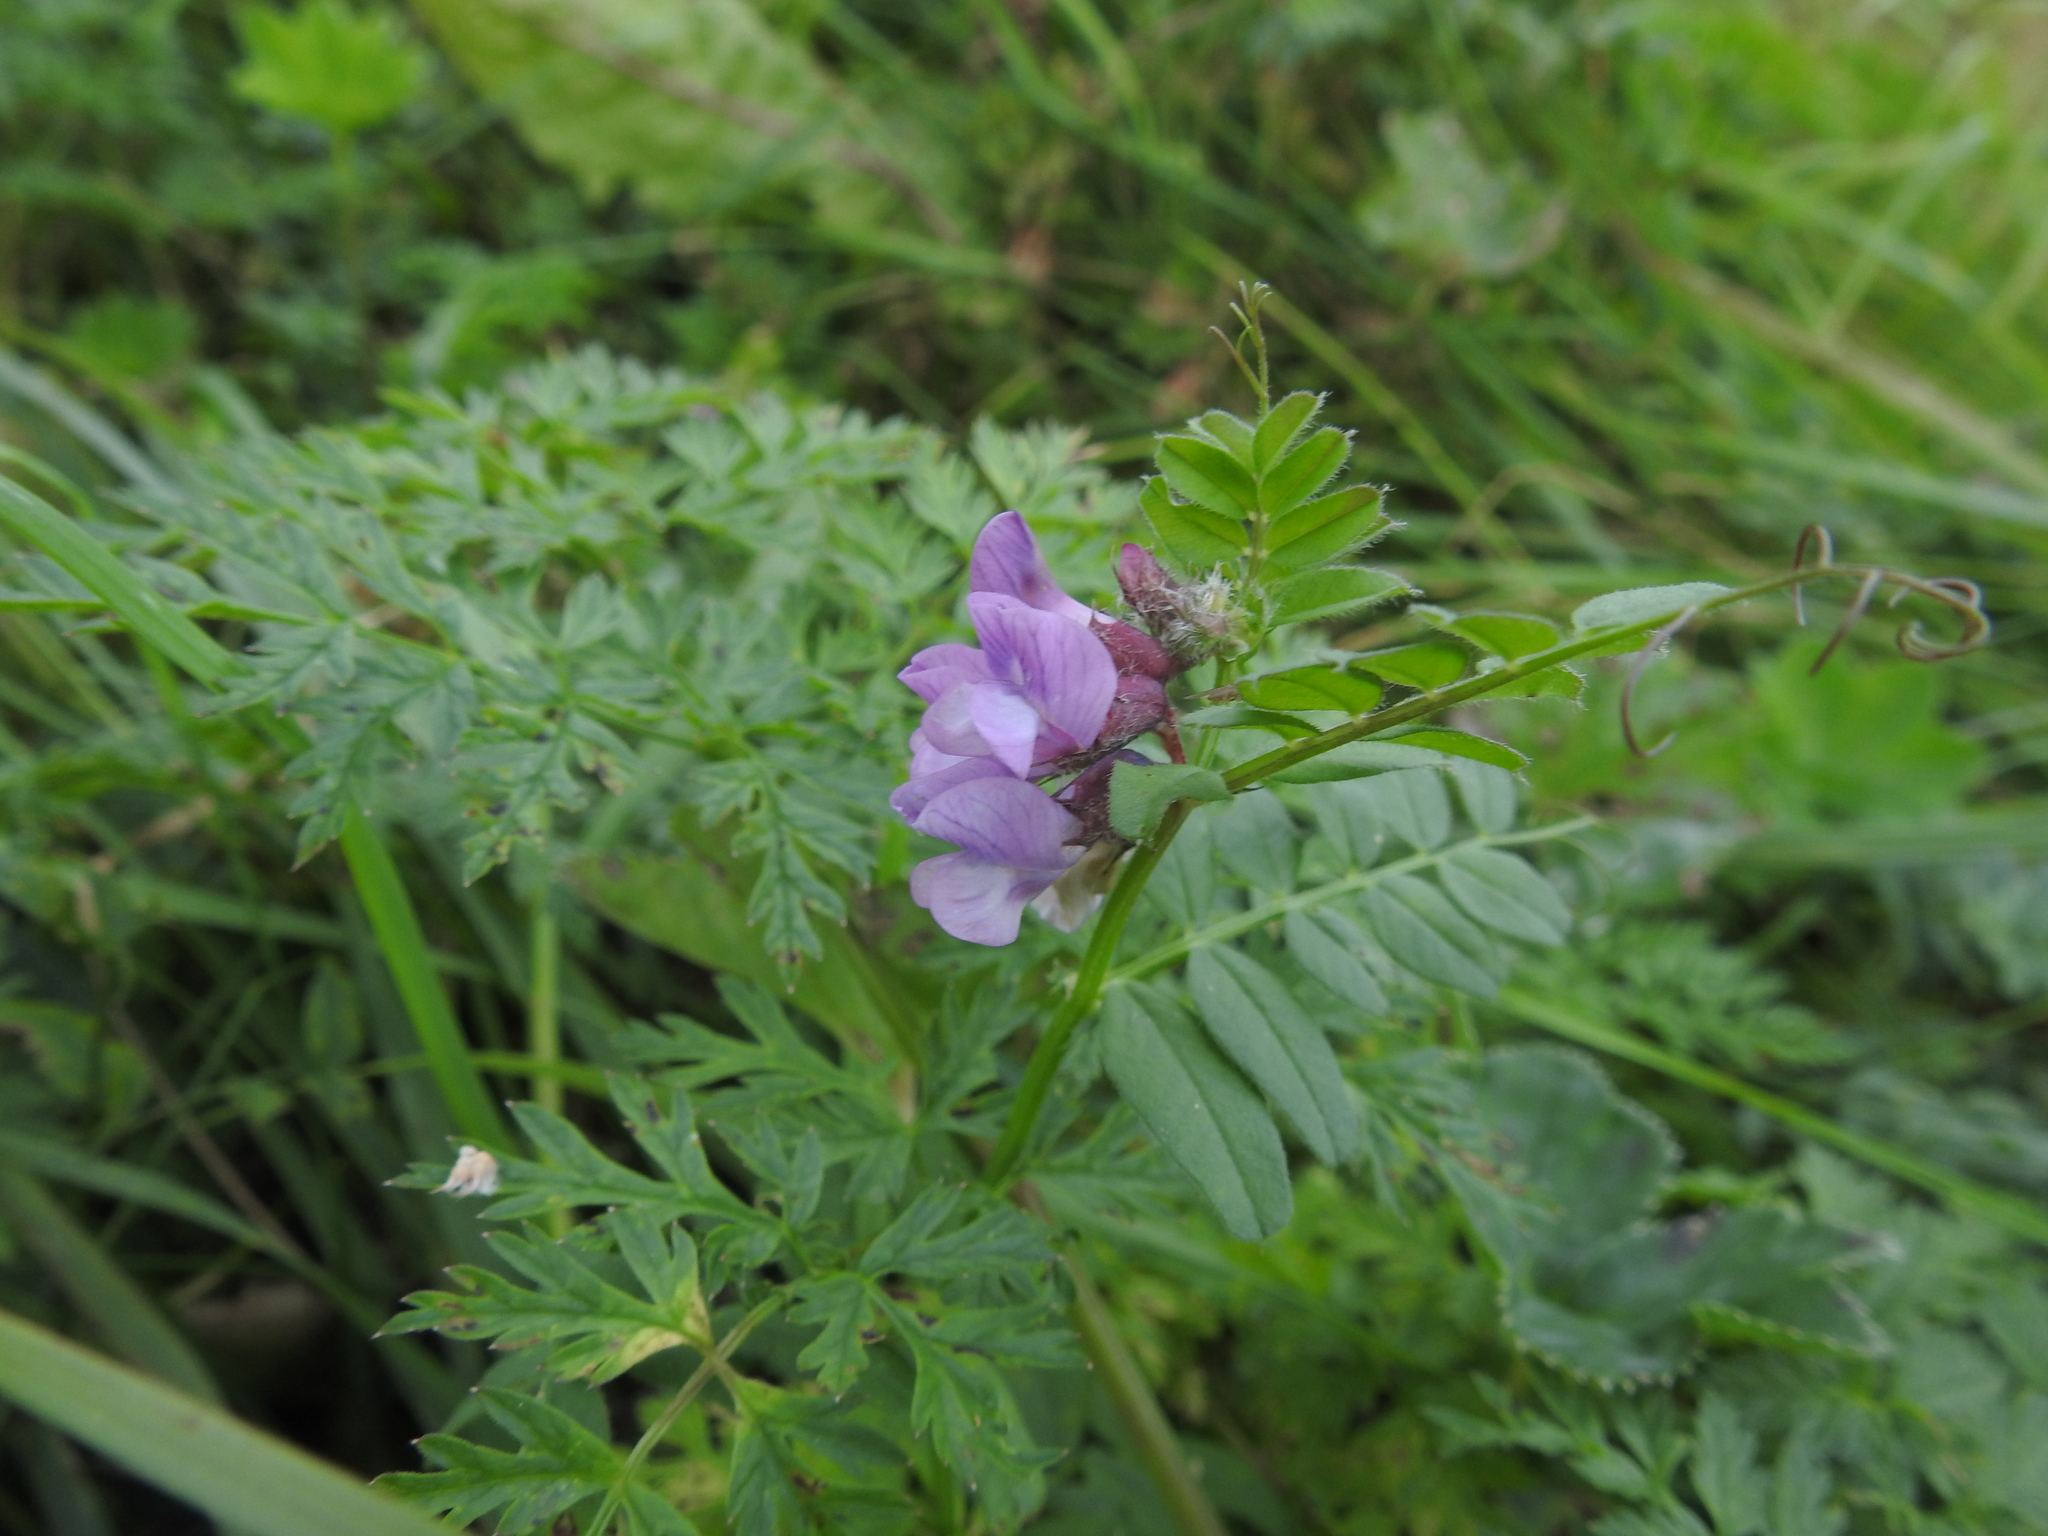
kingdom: Plantae
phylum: Tracheophyta
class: Magnoliopsida
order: Fabales
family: Fabaceae
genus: Vicia
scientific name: Vicia sepium
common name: Bush vetch
